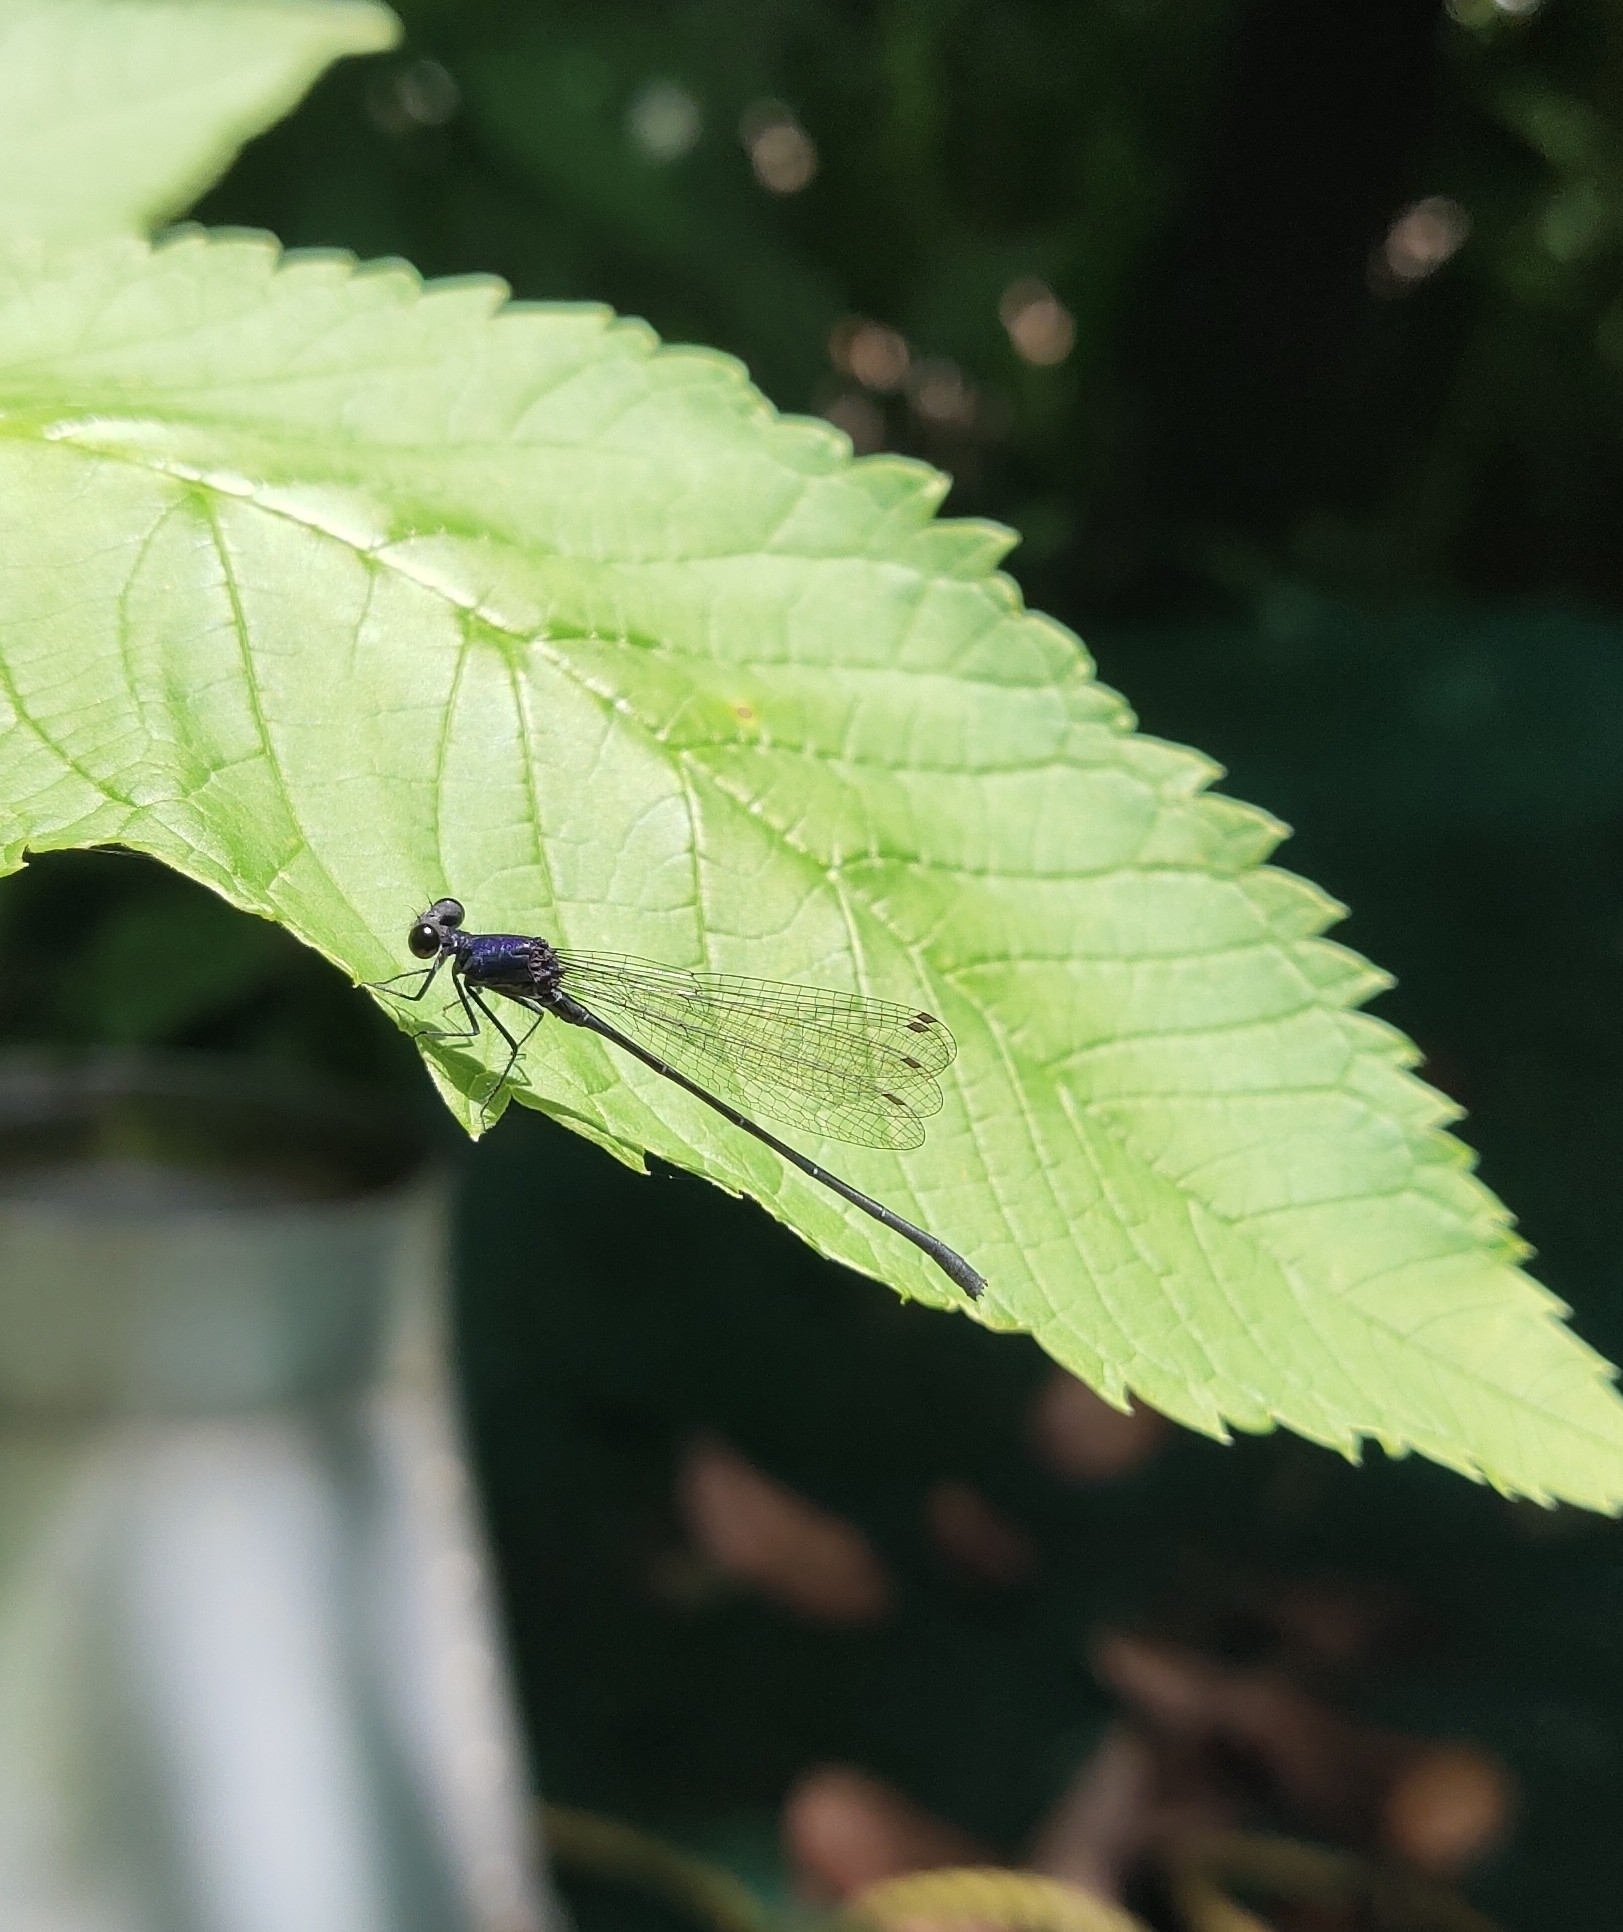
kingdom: Animalia
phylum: Arthropoda
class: Insecta
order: Odonata
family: Platycnemididae
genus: Onychargia
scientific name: Onychargia atrocyana
